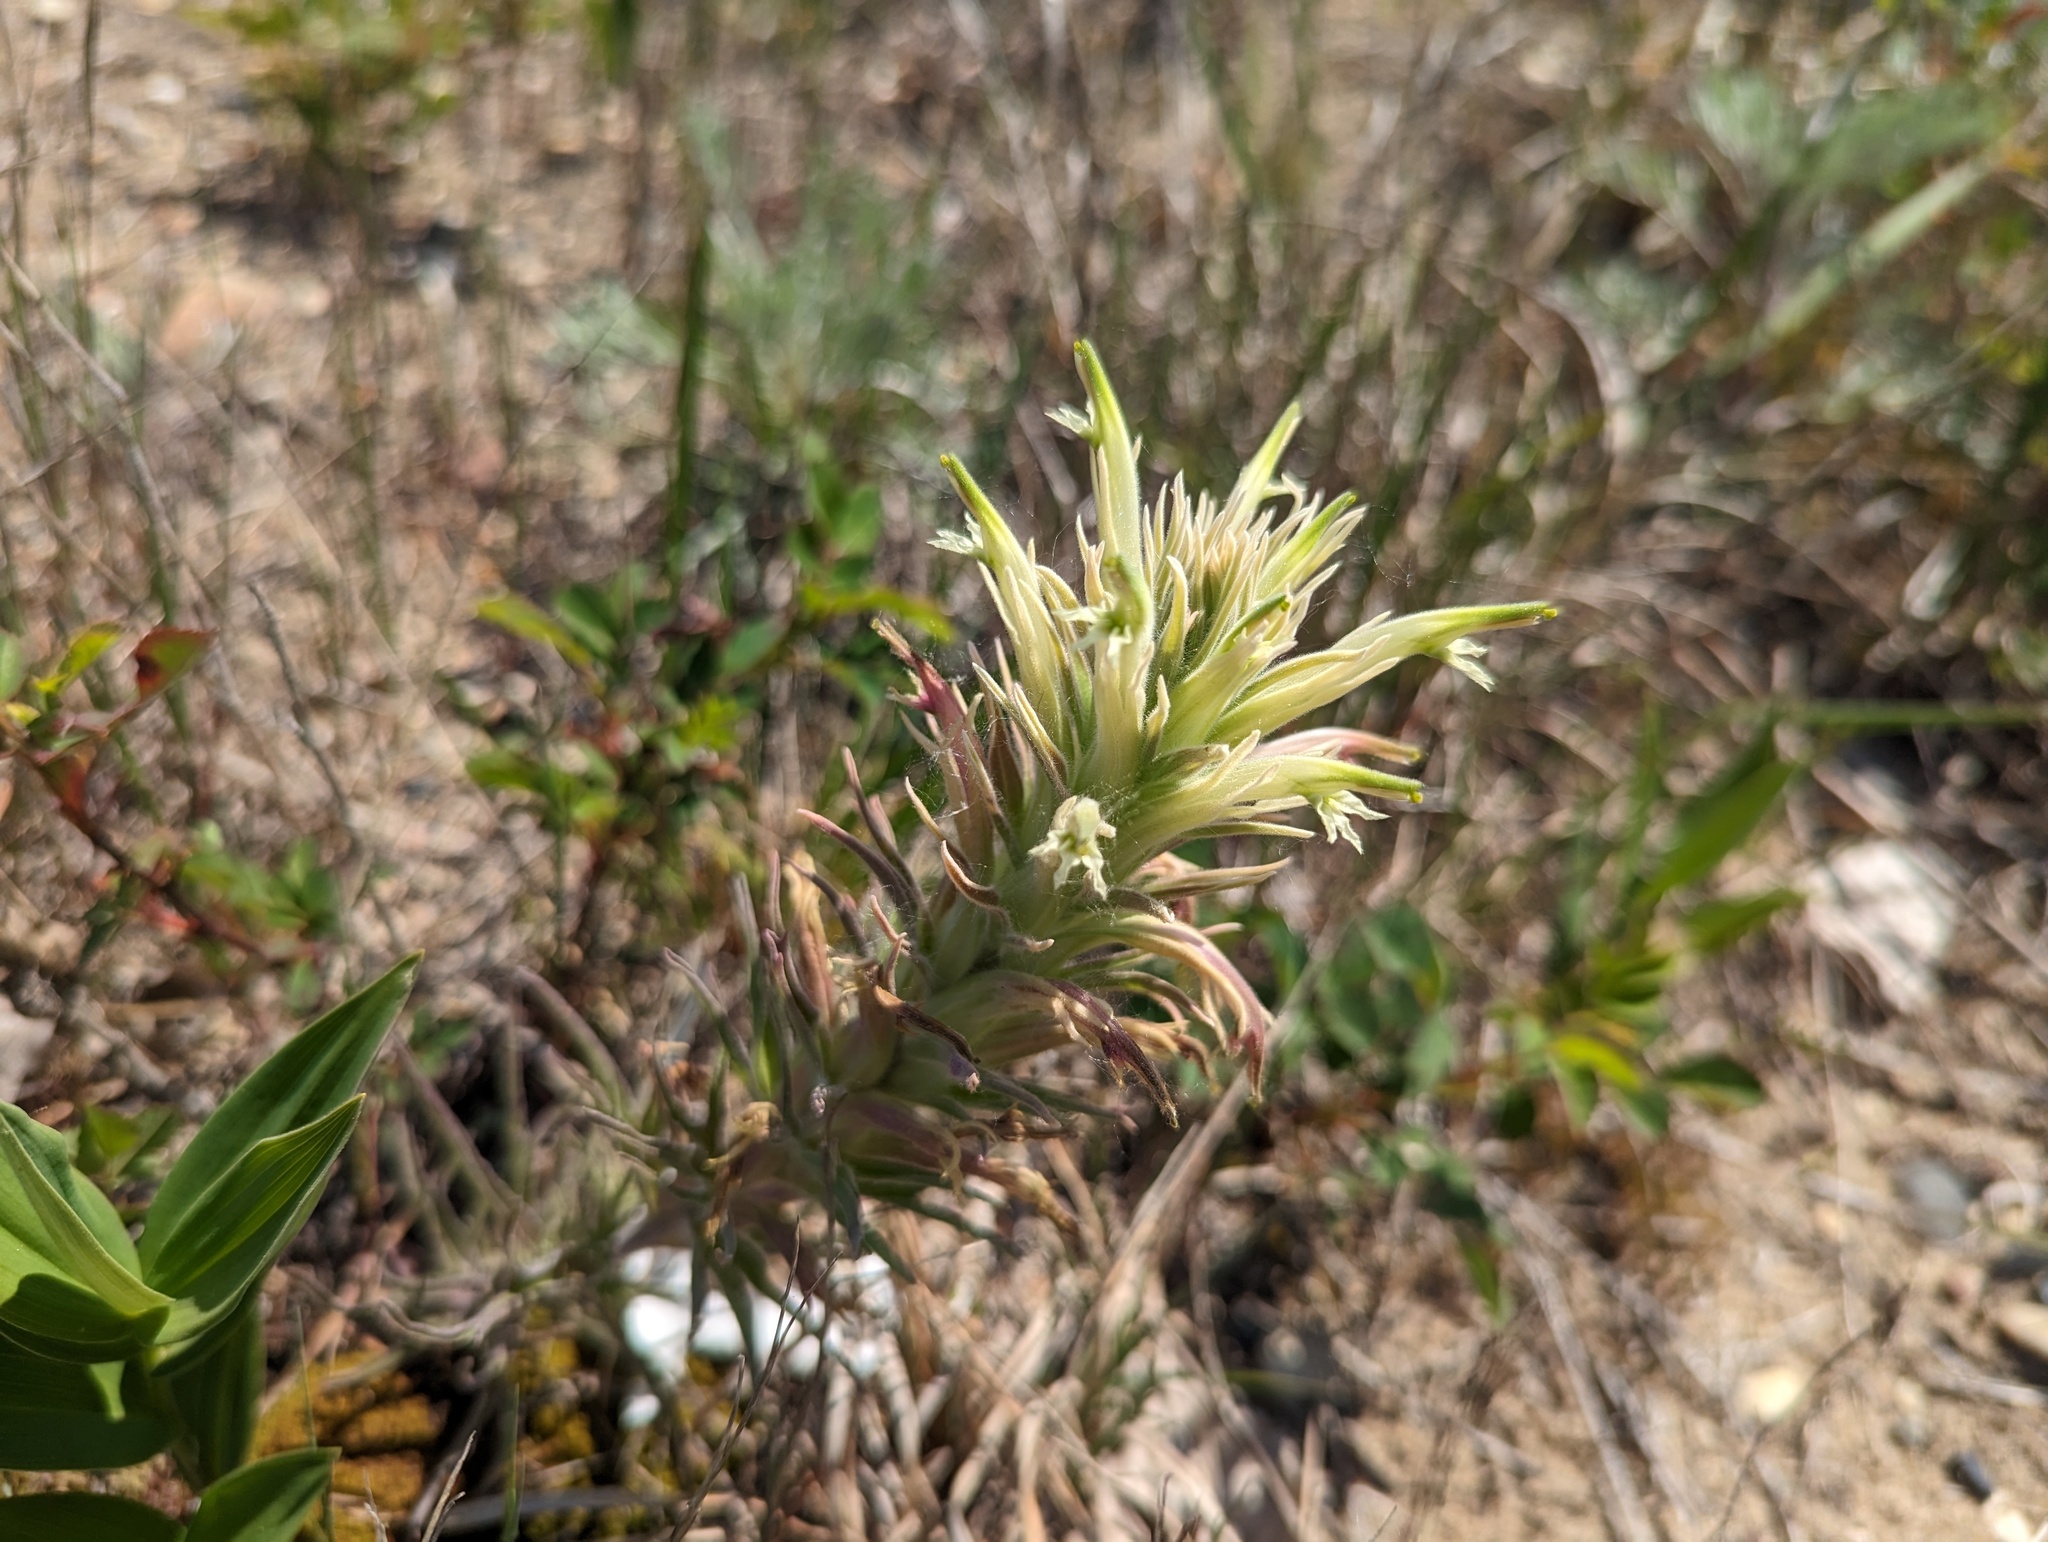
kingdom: Plantae
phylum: Tracheophyta
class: Magnoliopsida
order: Lamiales
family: Orobanchaceae
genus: Castilleja
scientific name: Castilleja sessiliflora
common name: Downy paintbrush
